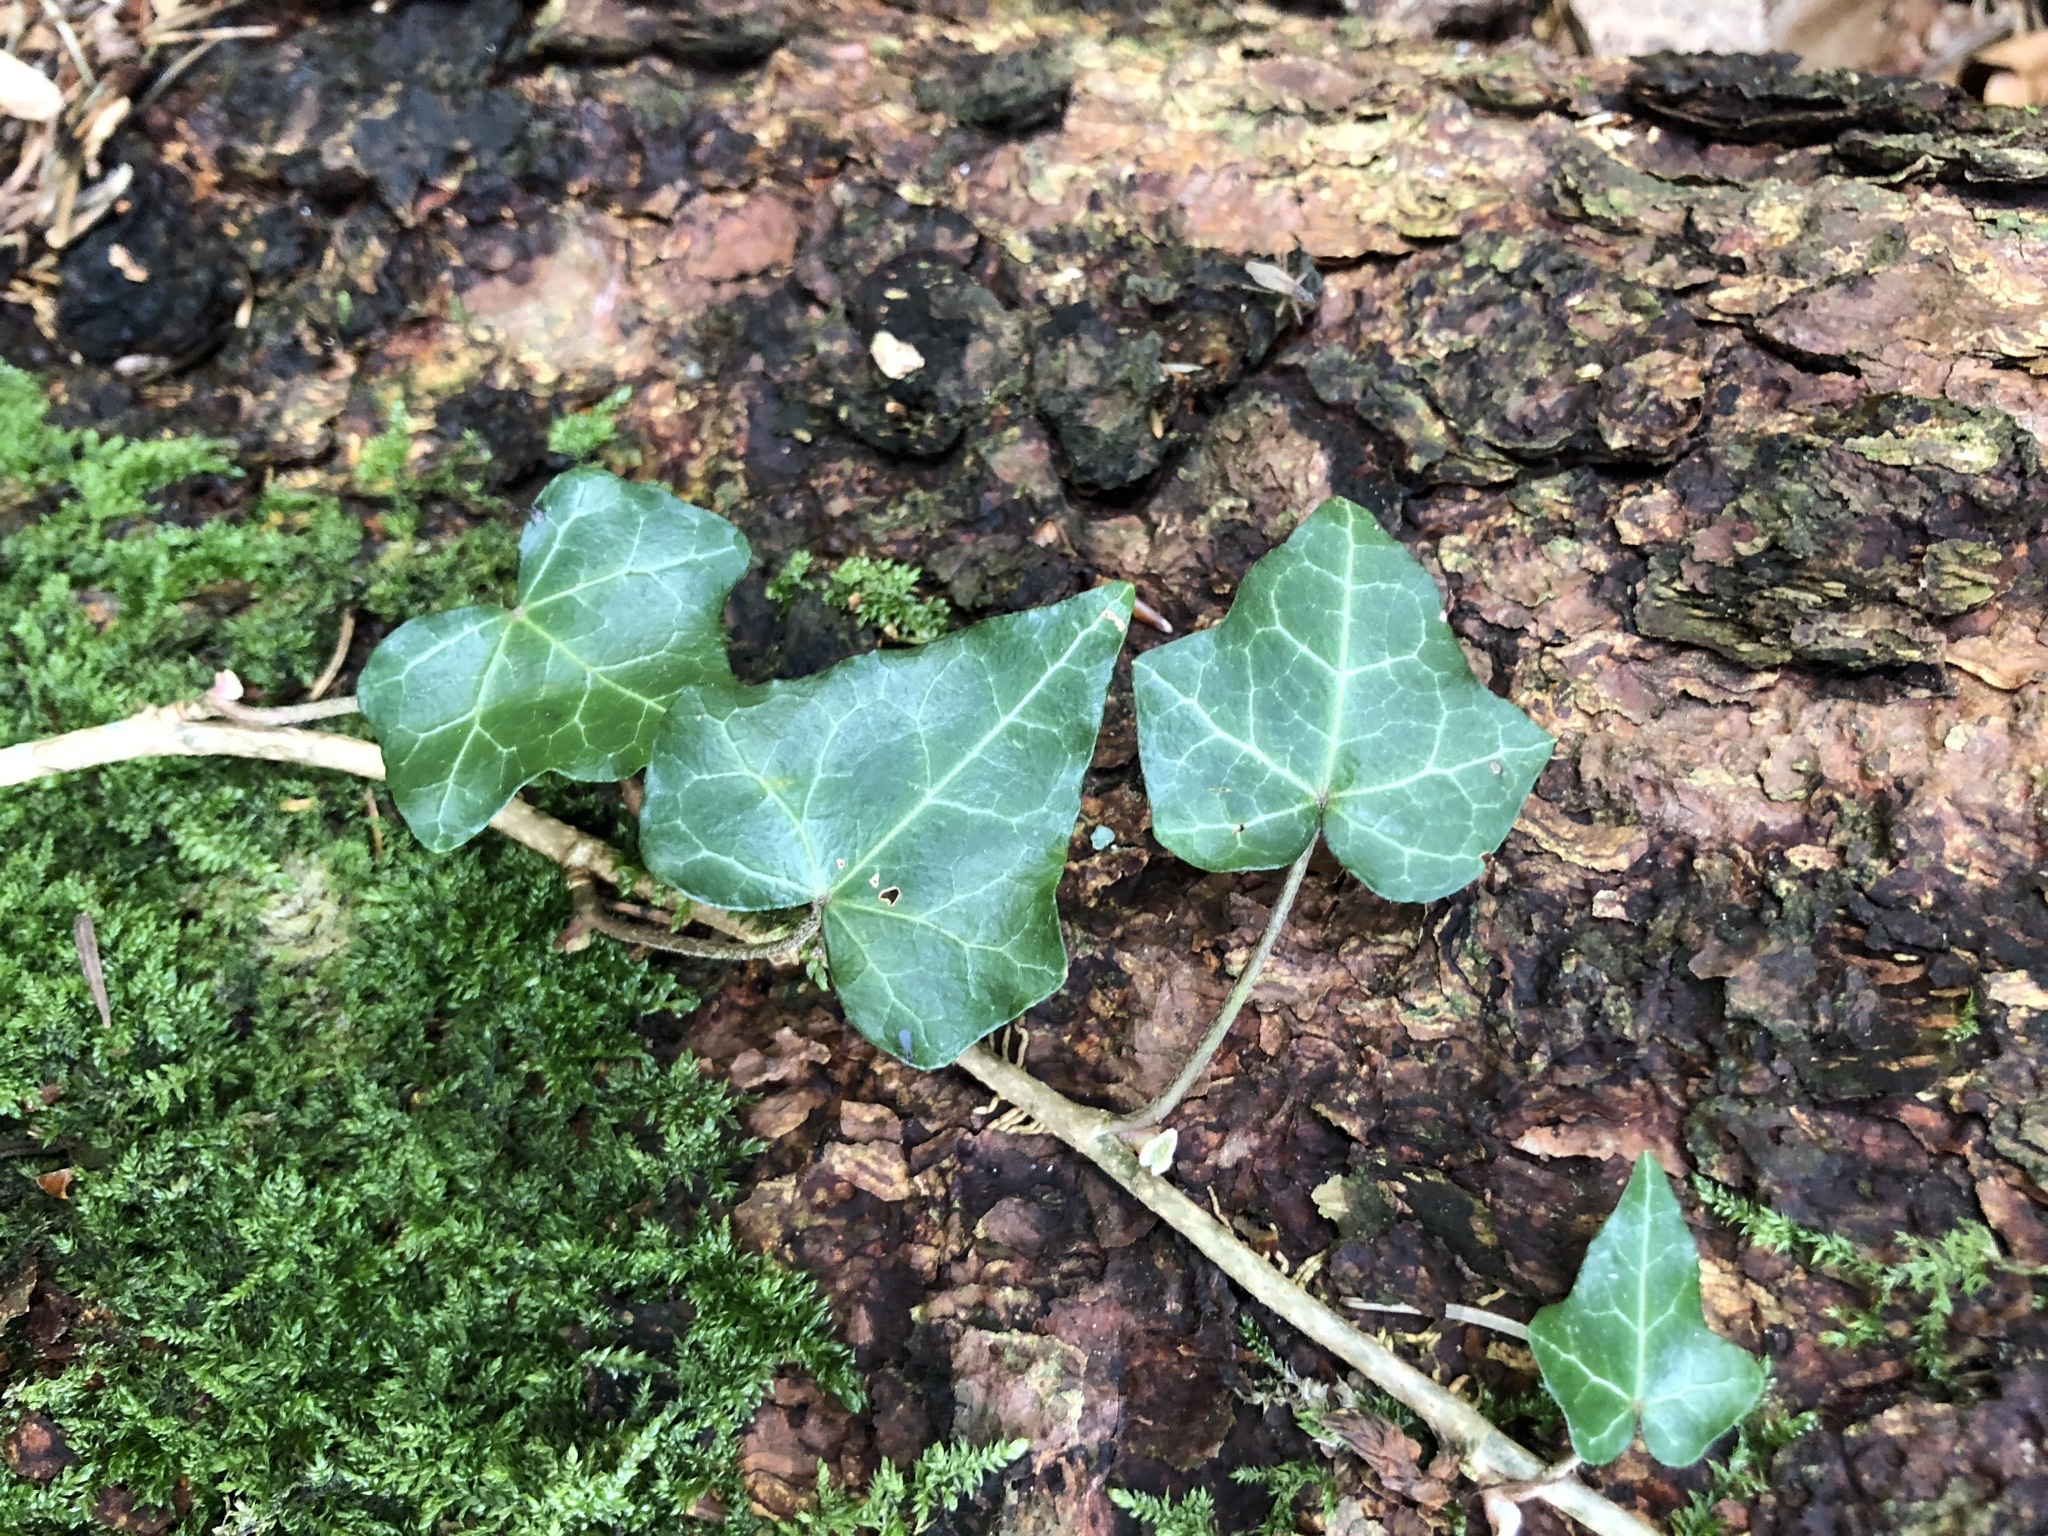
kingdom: Plantae
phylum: Tracheophyta
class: Magnoliopsida
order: Apiales
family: Araliaceae
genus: Hedera
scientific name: Hedera helix
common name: Ivy
